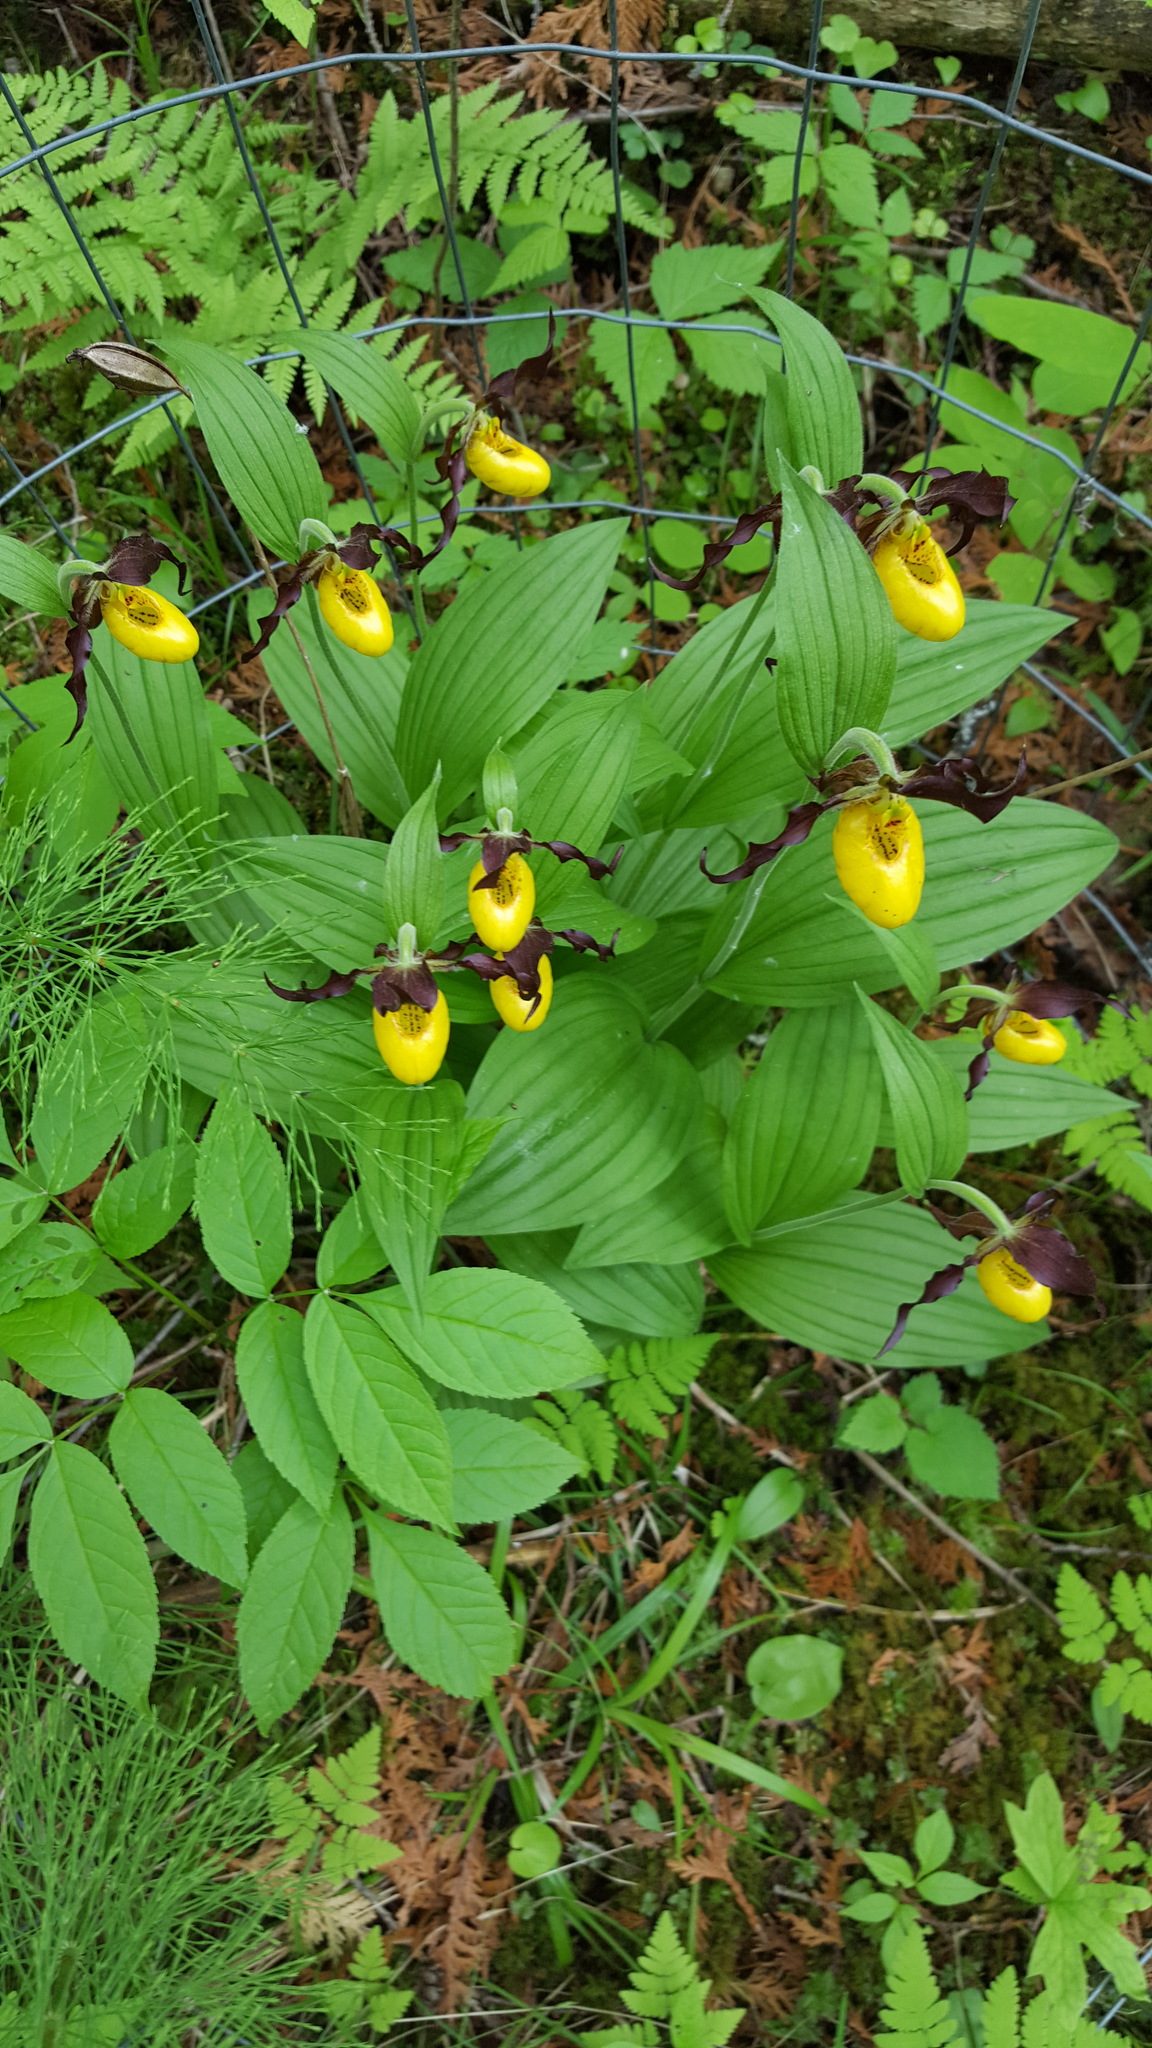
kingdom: Plantae
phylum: Tracheophyta
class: Liliopsida
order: Asparagales
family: Orchidaceae
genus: Cypripedium
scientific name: Cypripedium parviflorum
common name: American yellow lady's-slipper
